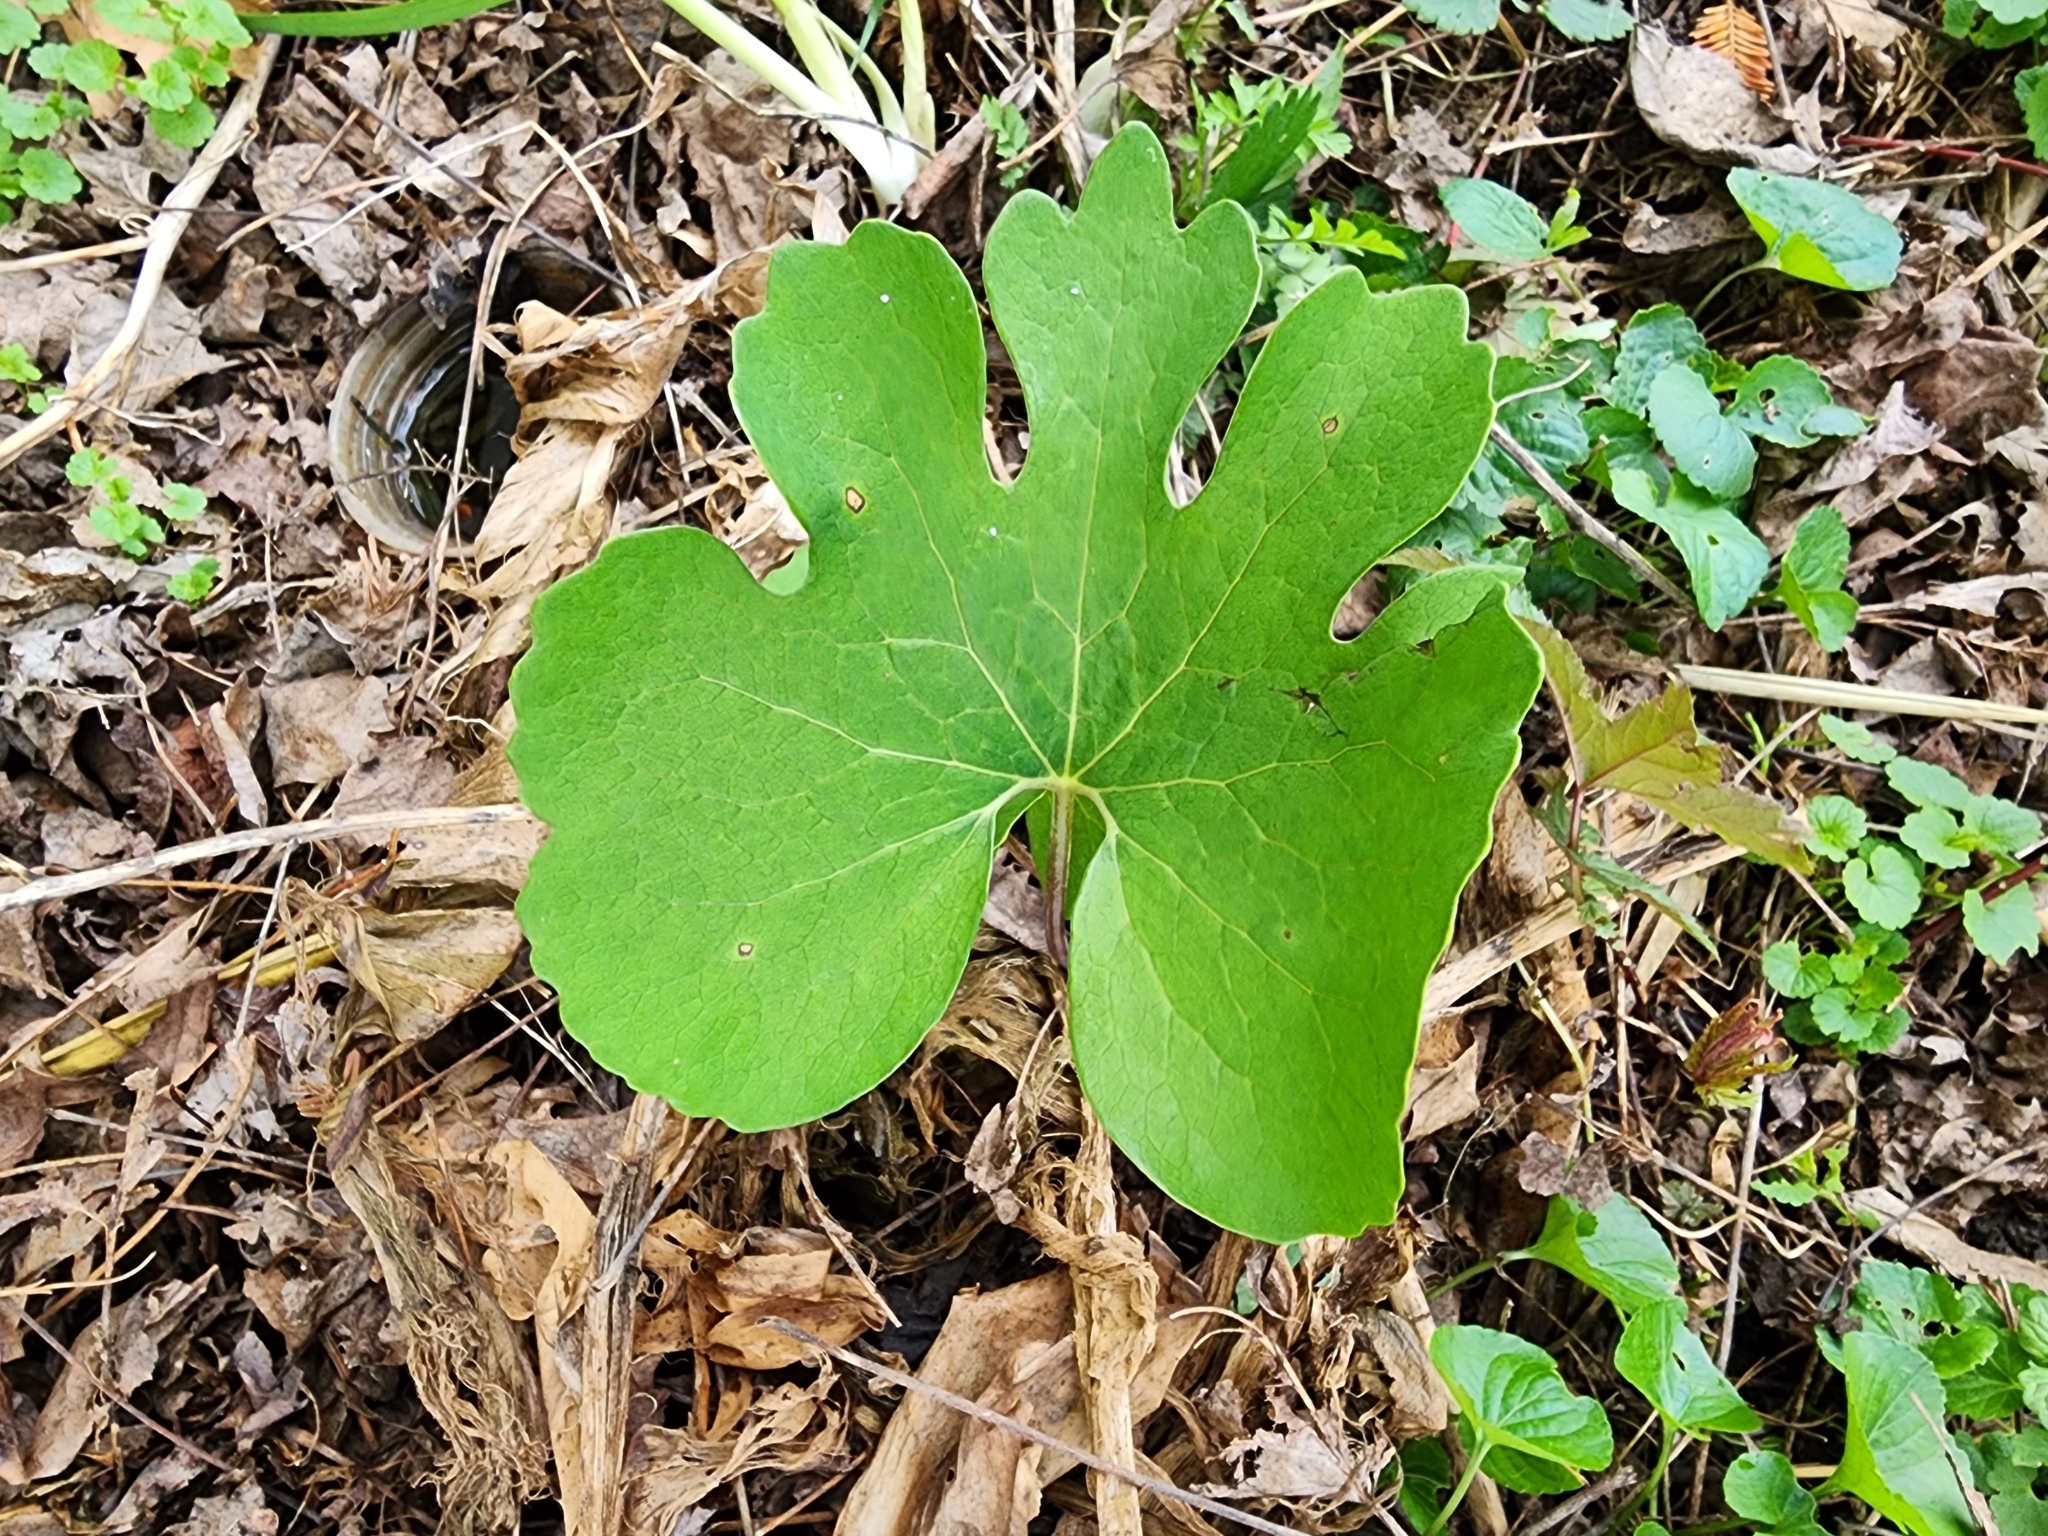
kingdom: Plantae
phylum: Tracheophyta
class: Magnoliopsida
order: Ranunculales
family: Papaveraceae
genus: Sanguinaria
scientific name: Sanguinaria canadensis
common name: Bloodroot
